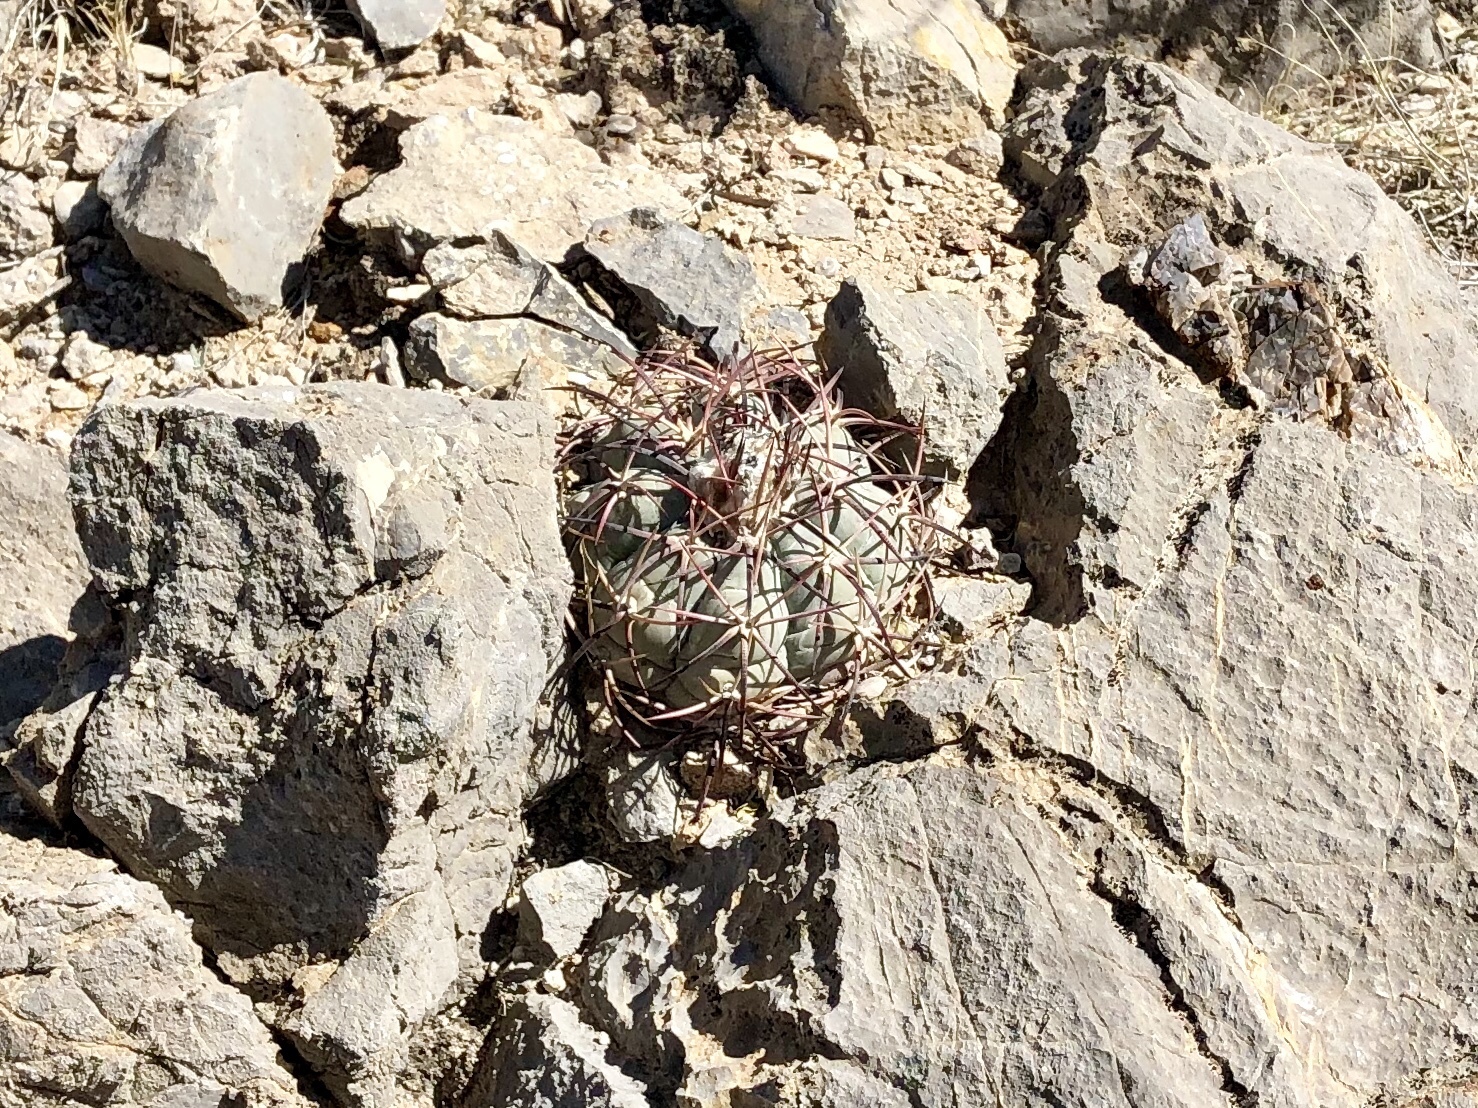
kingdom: Plantae
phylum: Tracheophyta
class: Magnoliopsida
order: Caryophyllales
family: Cactaceae
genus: Echinocactus
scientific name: Echinocactus horizonthalonius
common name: Devilshead
